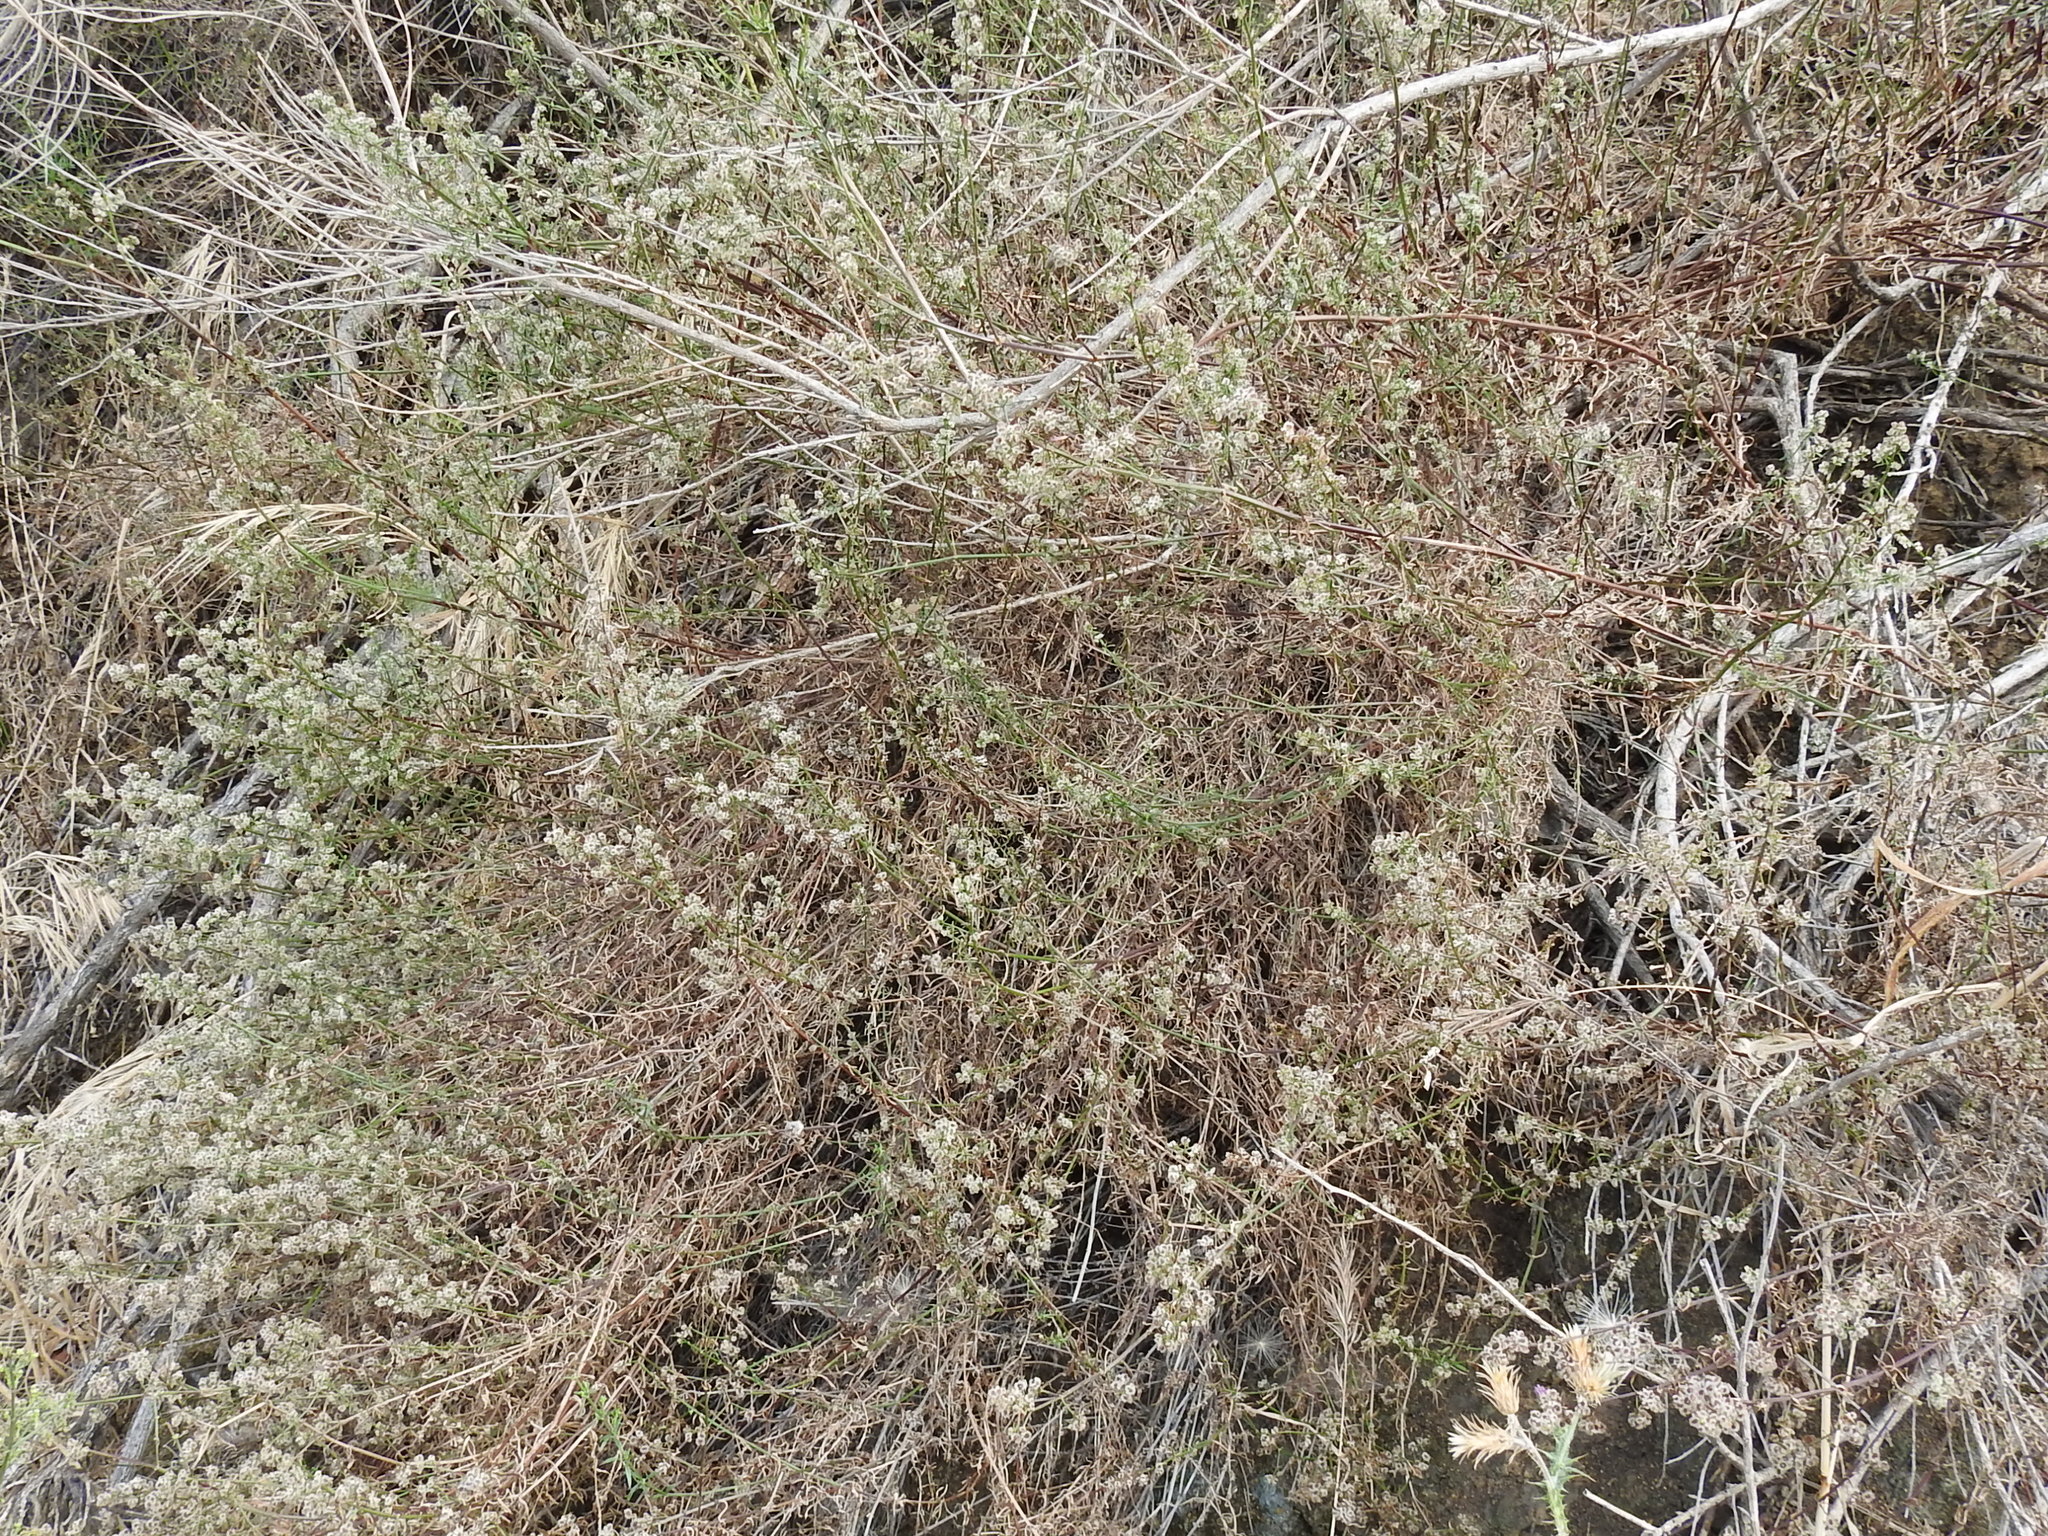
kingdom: Plantae
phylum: Tracheophyta
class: Magnoliopsida
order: Gentianales
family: Rubiaceae
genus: Galium
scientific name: Galium angustifolium
